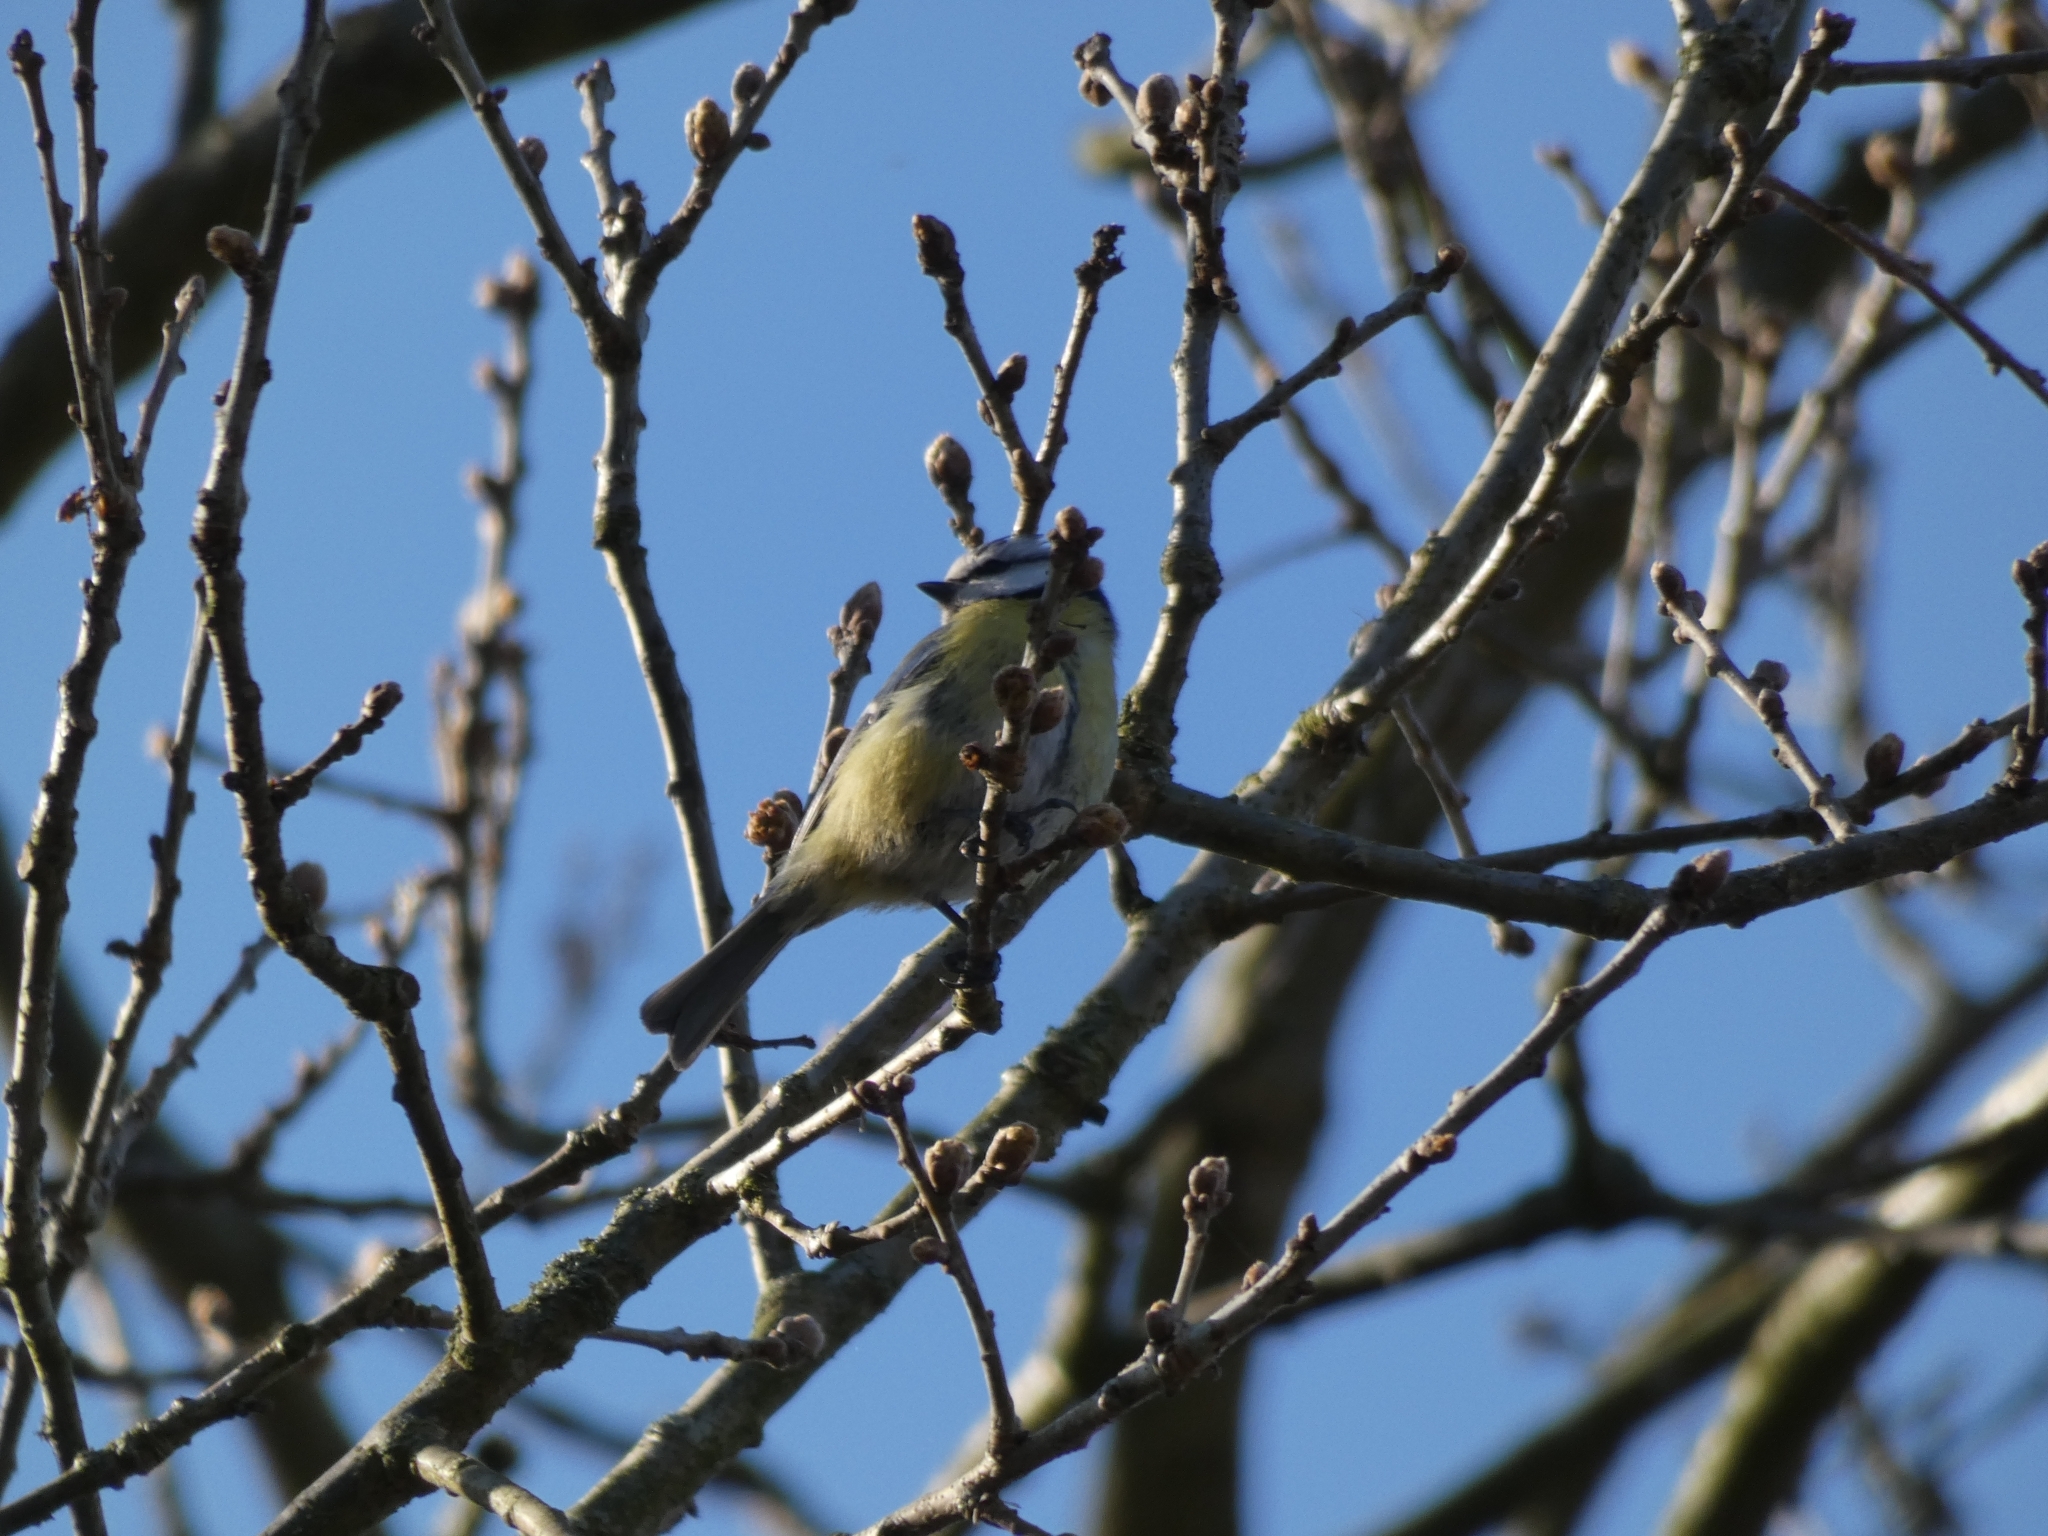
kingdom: Animalia
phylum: Chordata
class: Aves
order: Passeriformes
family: Paridae
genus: Cyanistes
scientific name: Cyanistes caeruleus
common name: Eurasian blue tit
